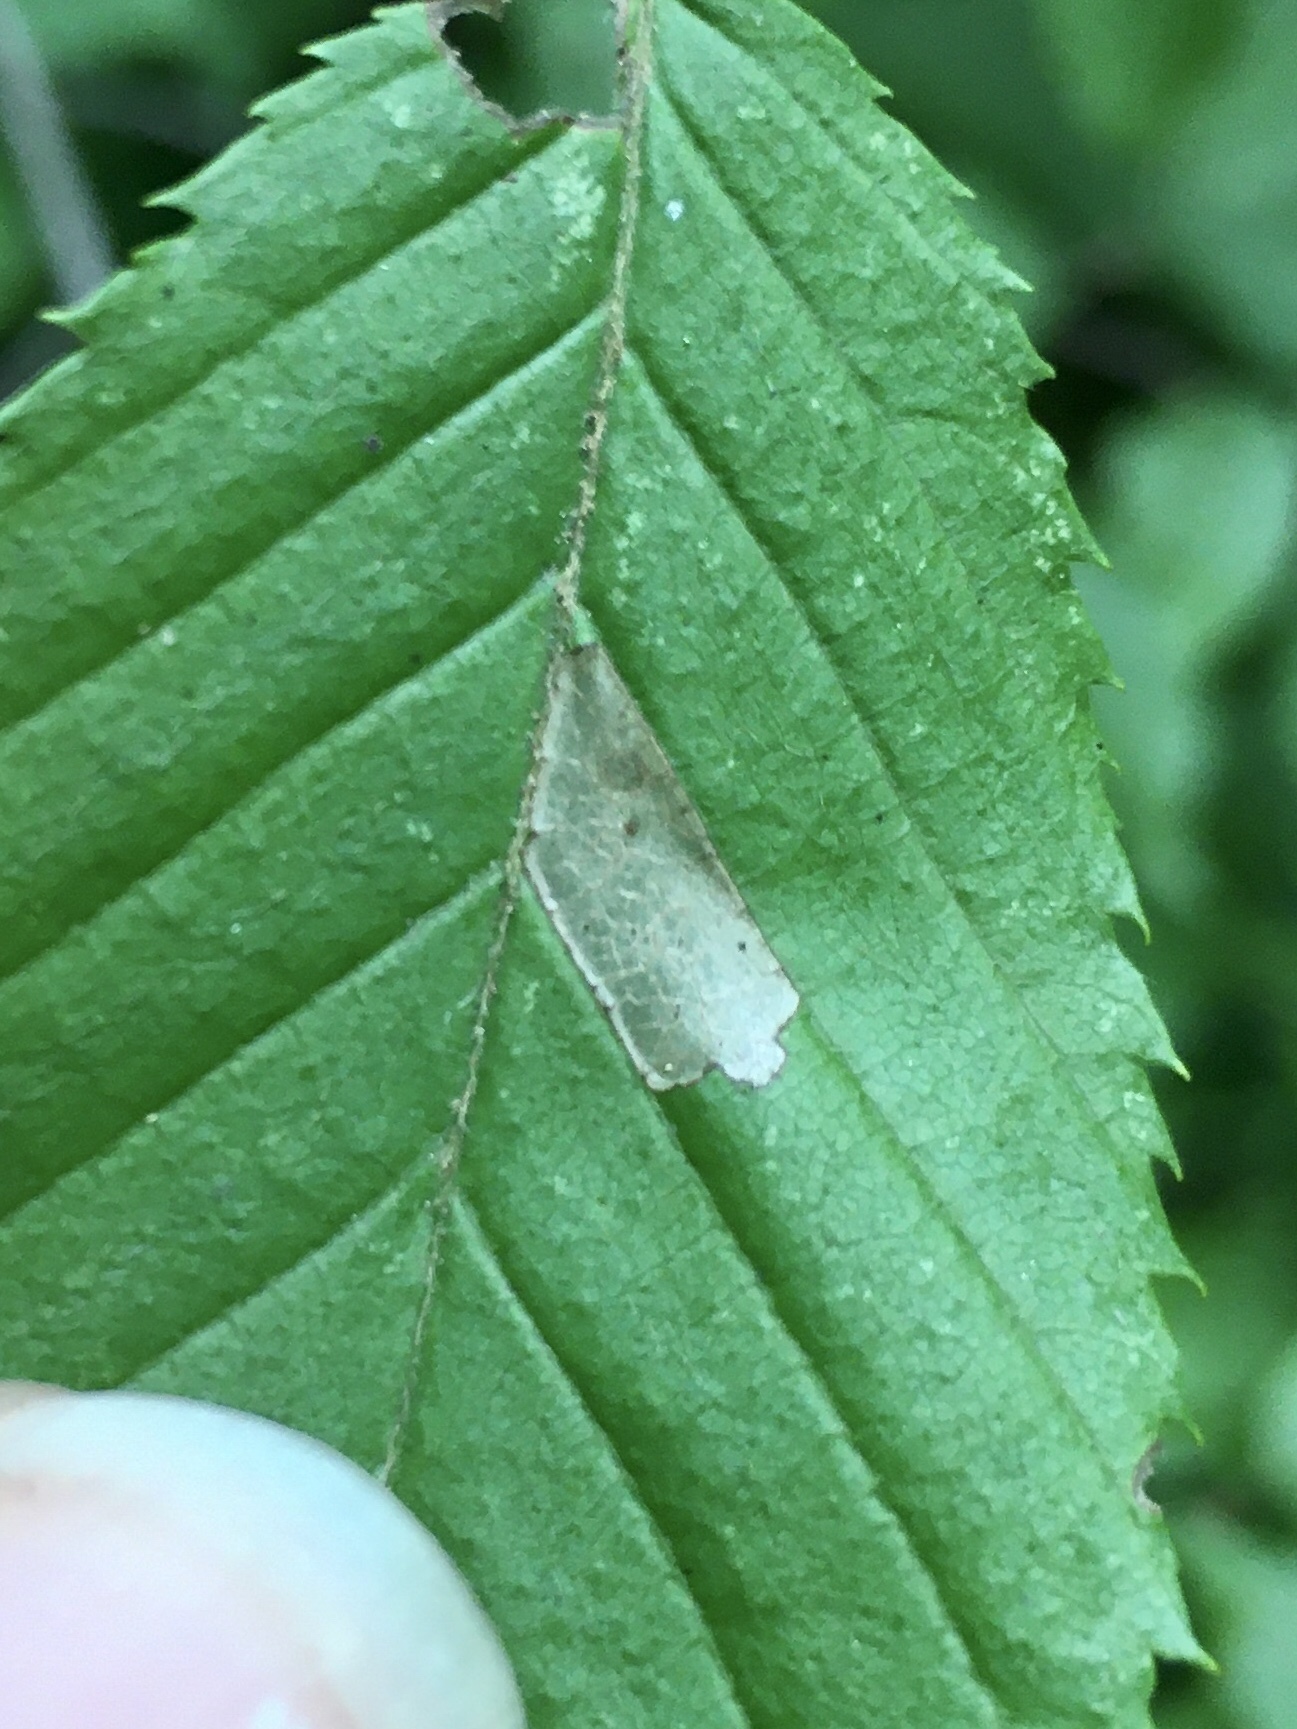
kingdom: Animalia
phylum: Arthropoda
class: Insecta
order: Lepidoptera
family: Coleophoridae
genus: Coleophora
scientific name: Coleophora ostryae
